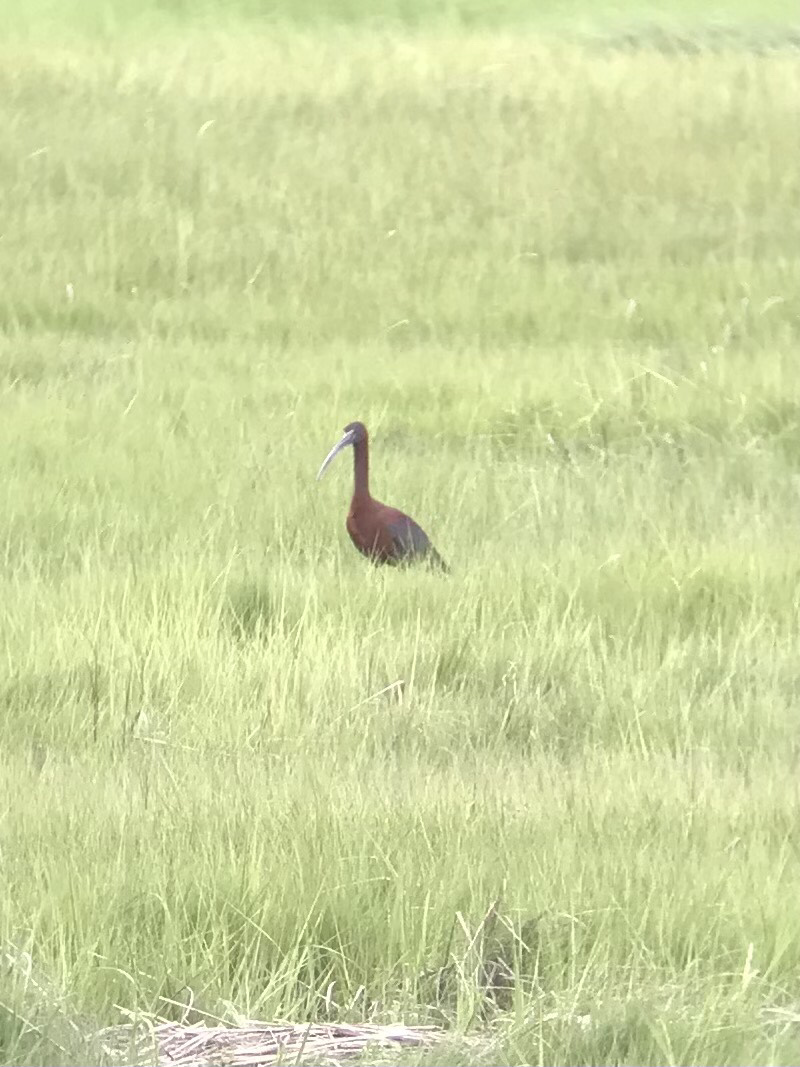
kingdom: Animalia
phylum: Chordata
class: Aves
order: Pelecaniformes
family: Threskiornithidae
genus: Plegadis
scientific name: Plegadis falcinellus
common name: Glossy ibis
